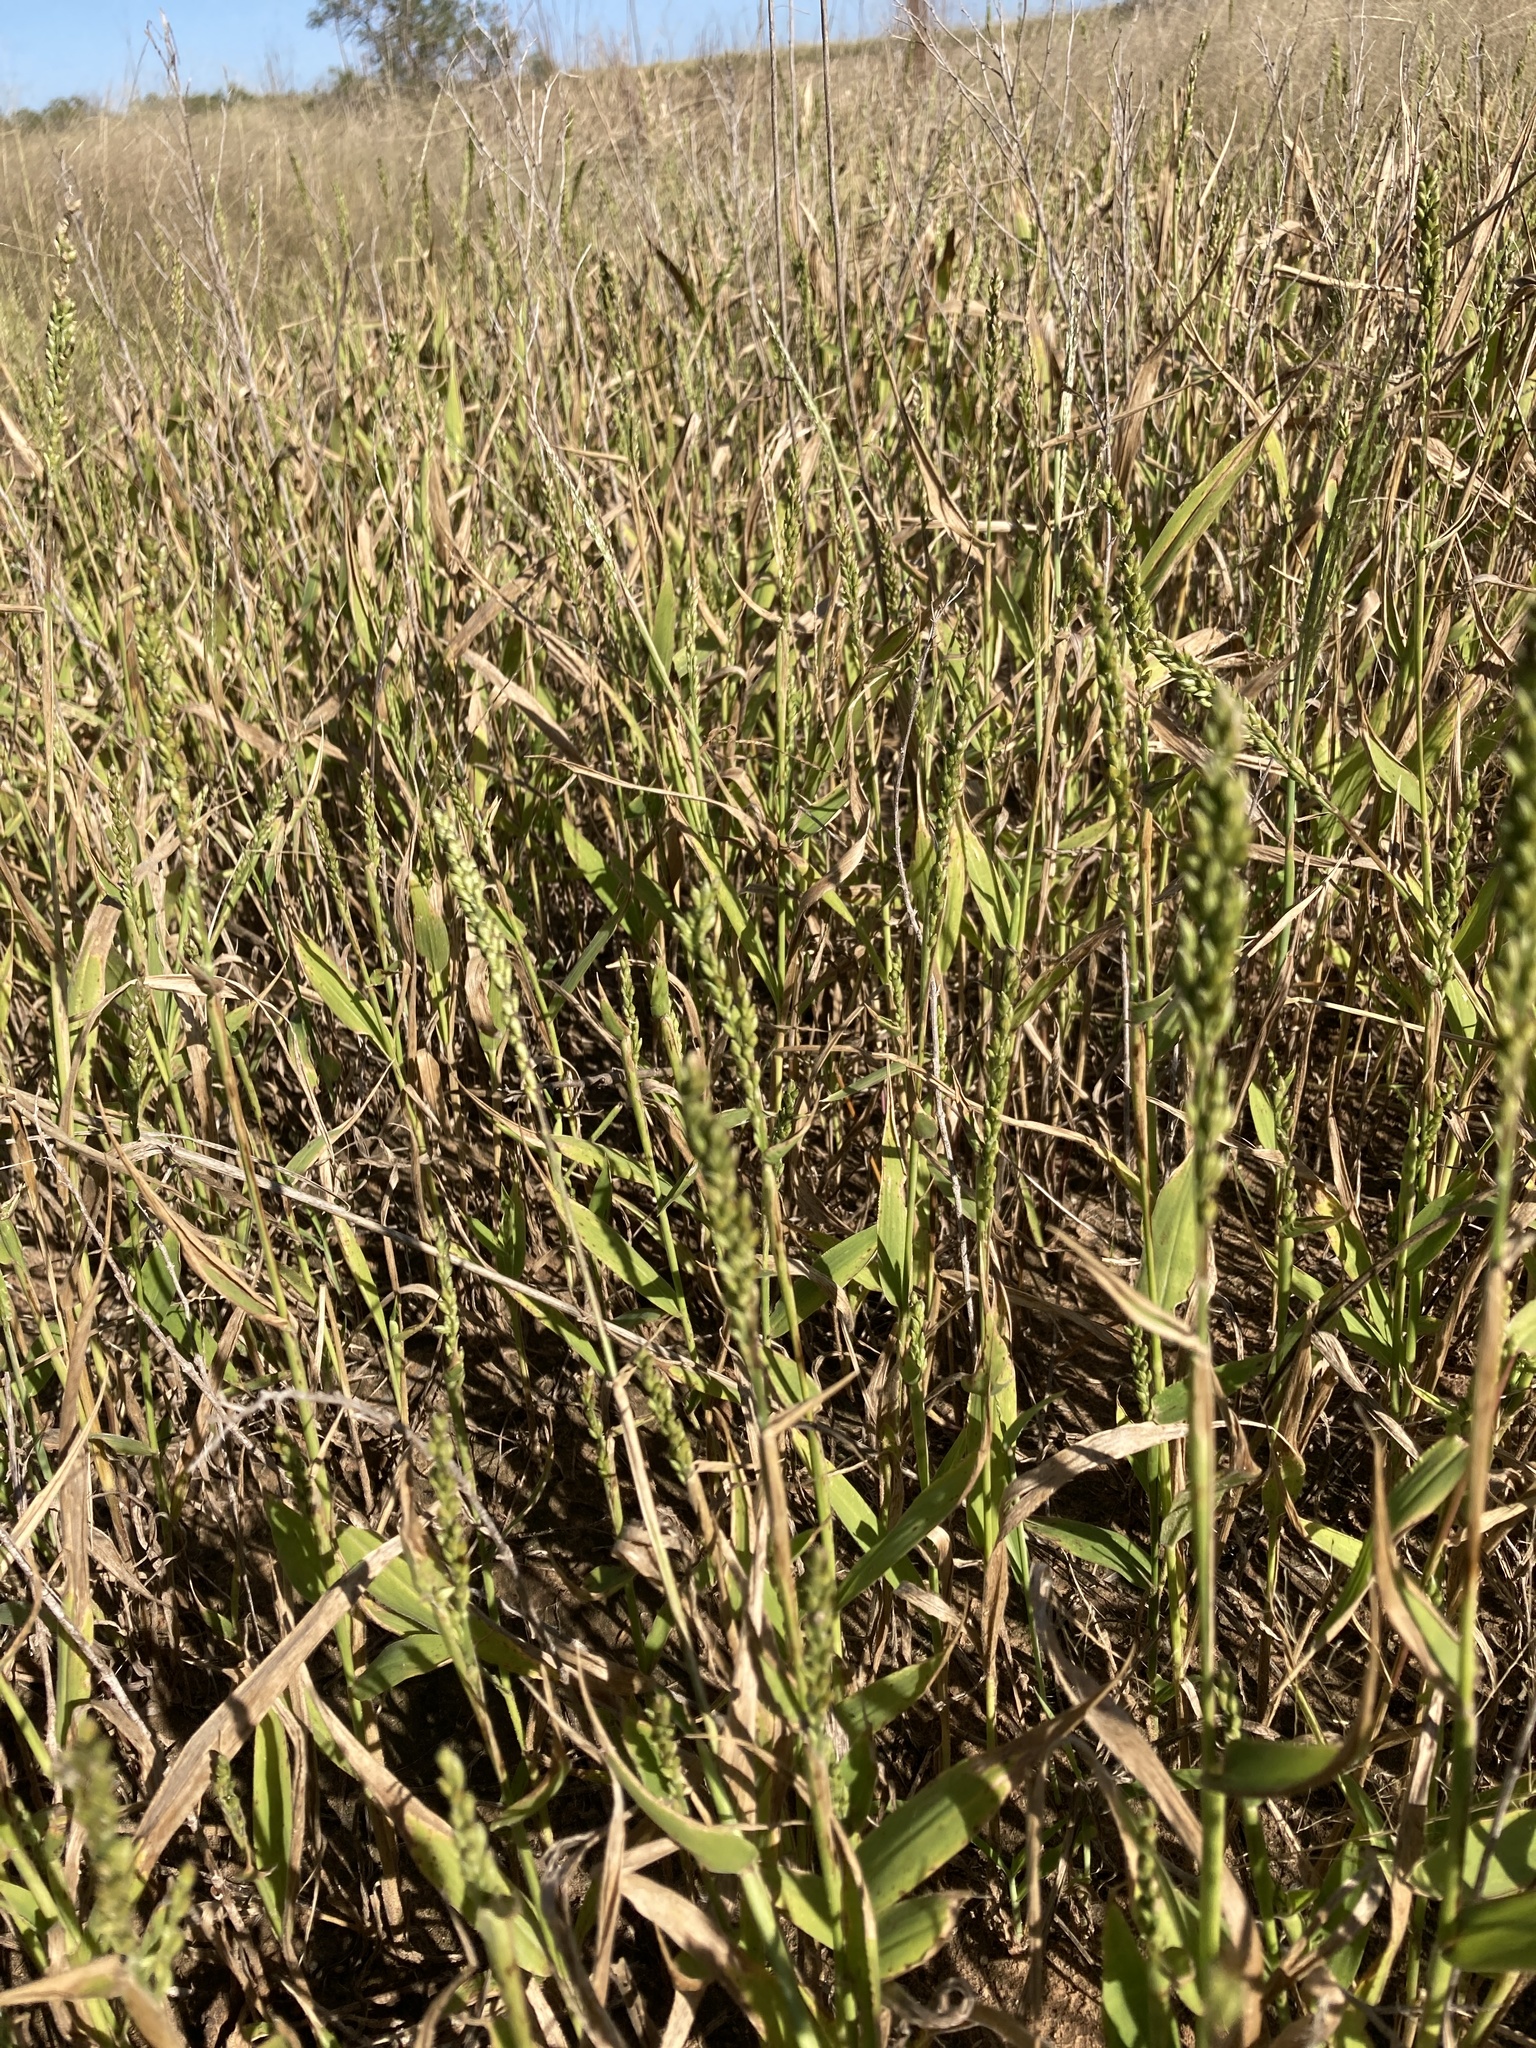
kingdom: Plantae
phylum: Tracheophyta
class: Liliopsida
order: Poales
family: Poaceae
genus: Urochloa
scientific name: Urochloa texana
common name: Texas millet
